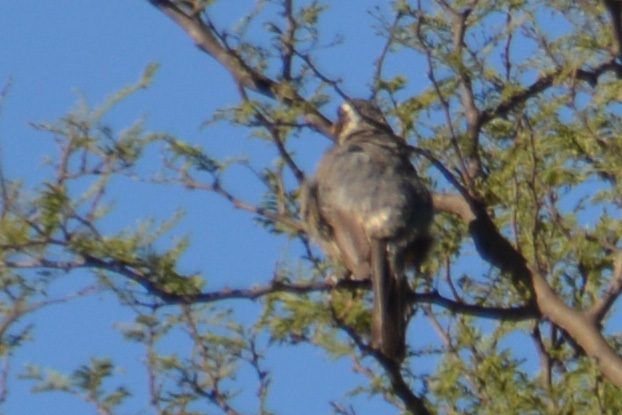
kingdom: Animalia
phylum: Chordata
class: Aves
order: Passeriformes
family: Thraupidae
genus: Saltator
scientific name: Saltator aurantiirostris
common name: Golden-billed saltator
